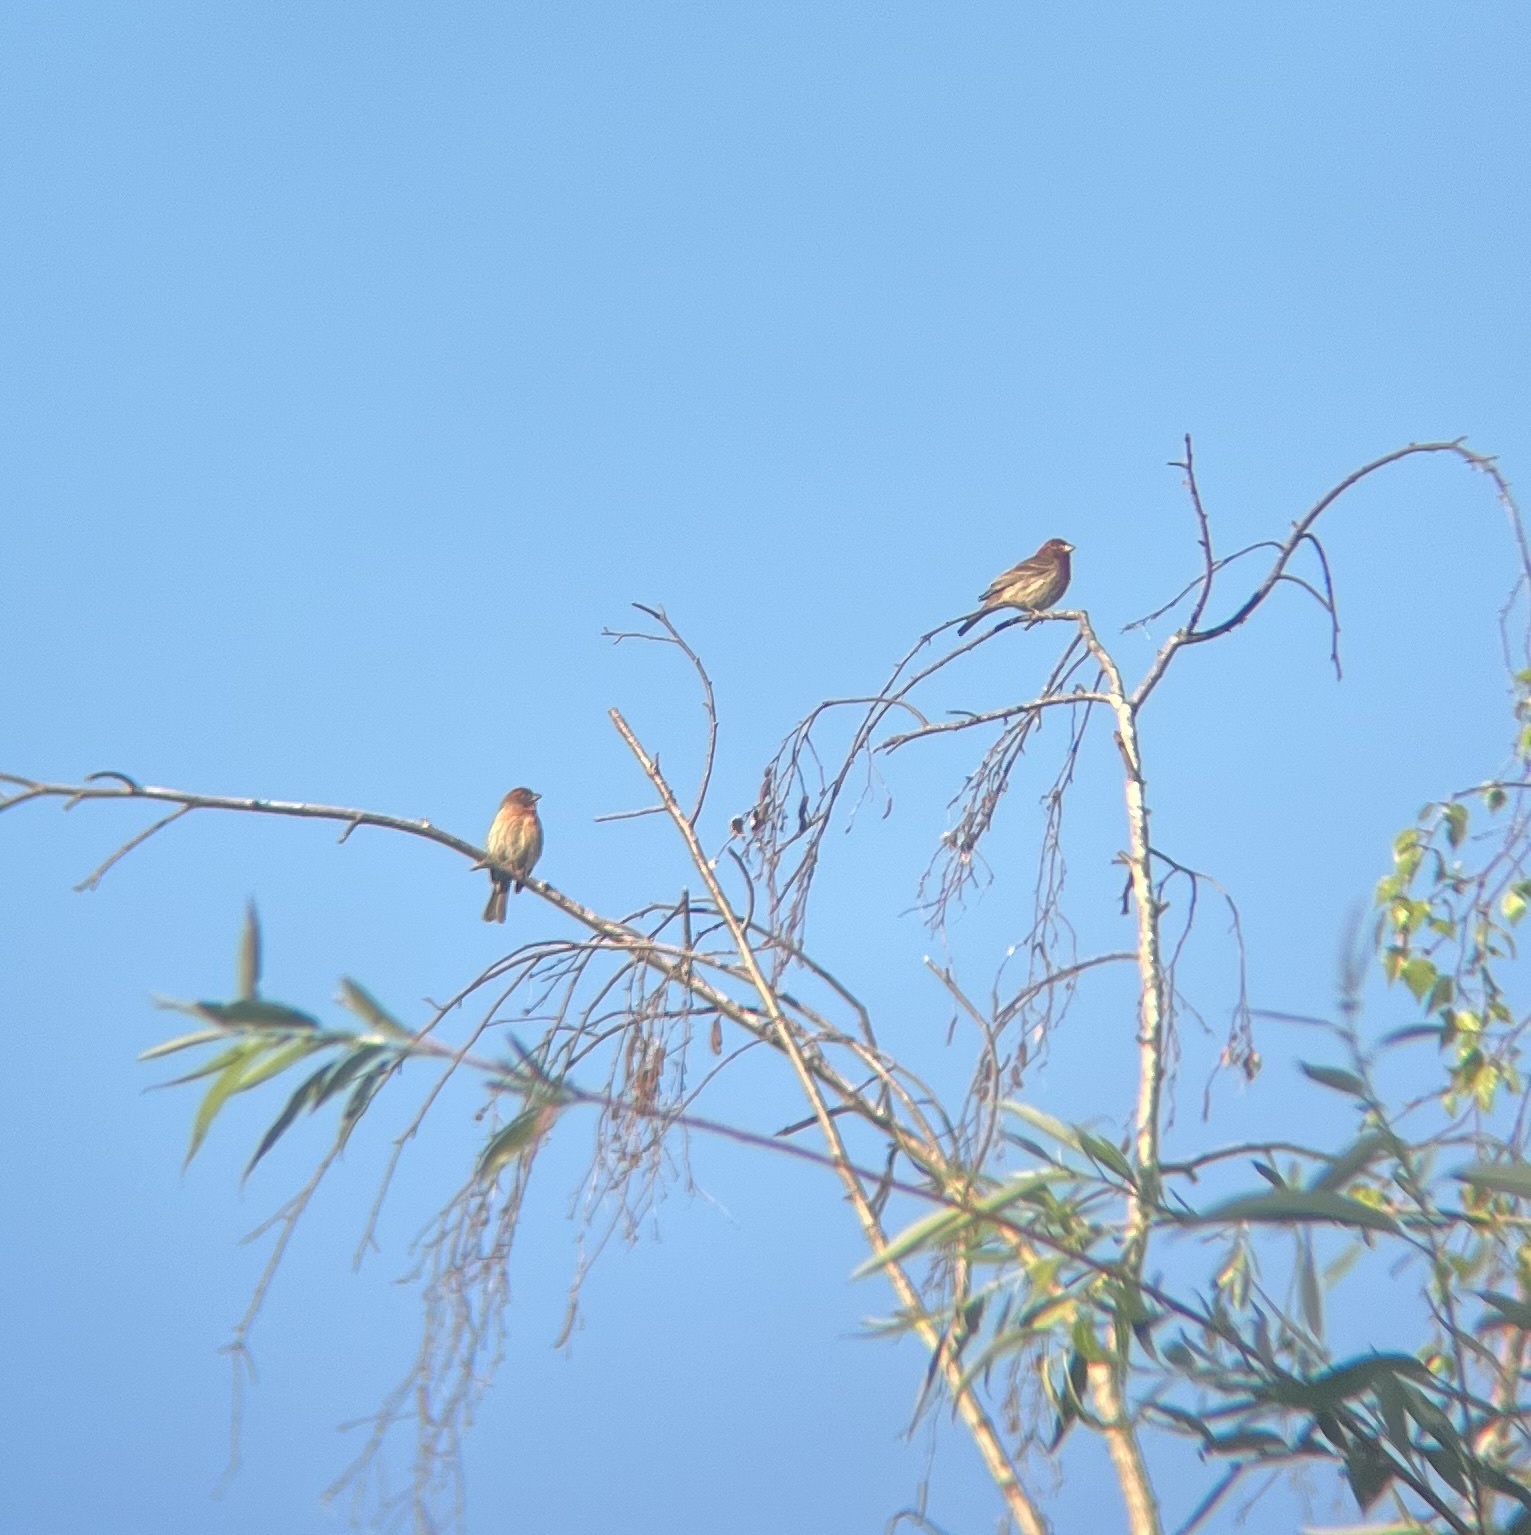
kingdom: Animalia
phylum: Chordata
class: Aves
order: Passeriformes
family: Fringillidae
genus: Haemorhous
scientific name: Haemorhous mexicanus
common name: House finch
